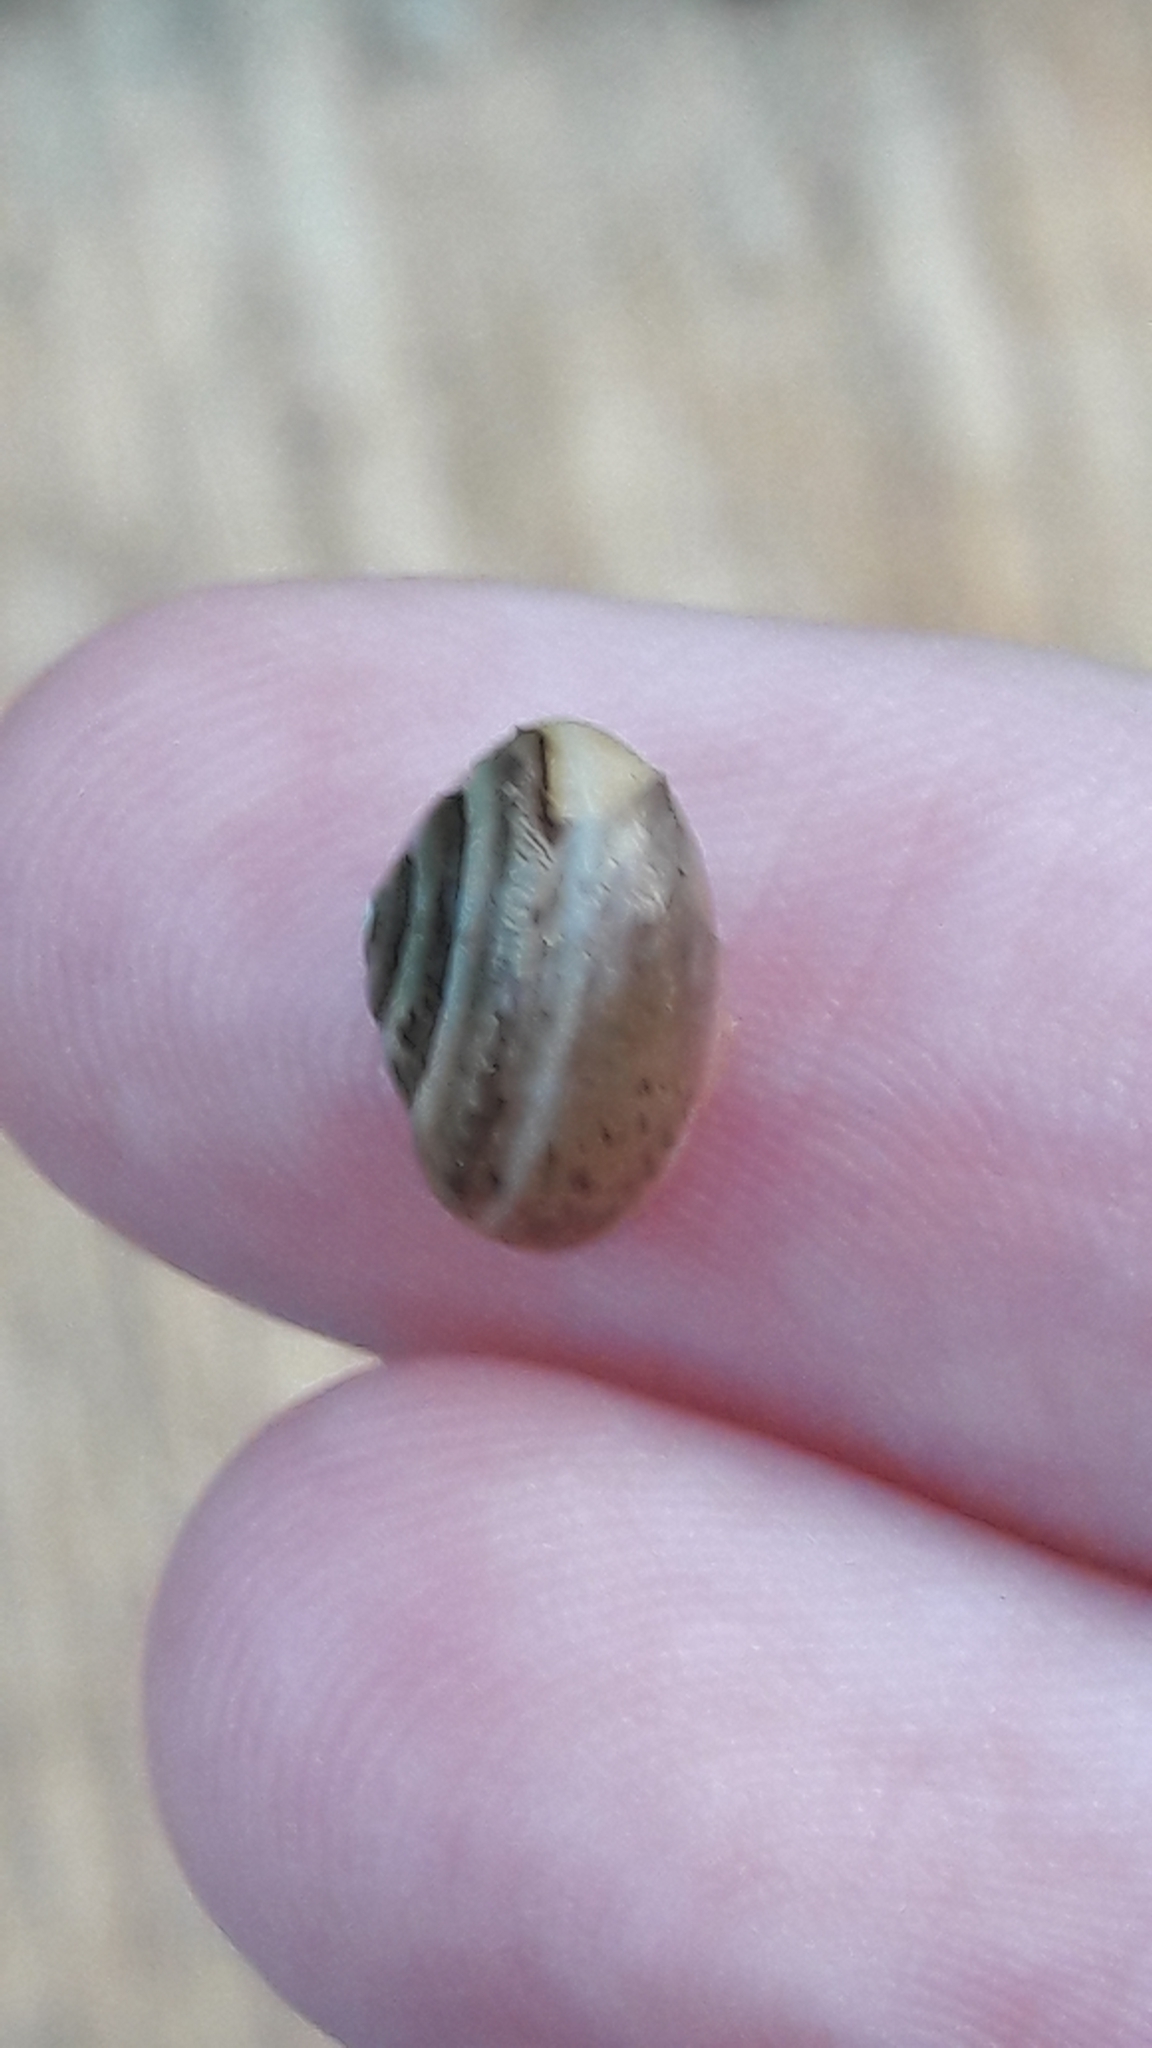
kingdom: Animalia
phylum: Mollusca
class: Gastropoda
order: Stylommatophora
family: Hygromiidae
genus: Monacha
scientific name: Monacha syriaca
